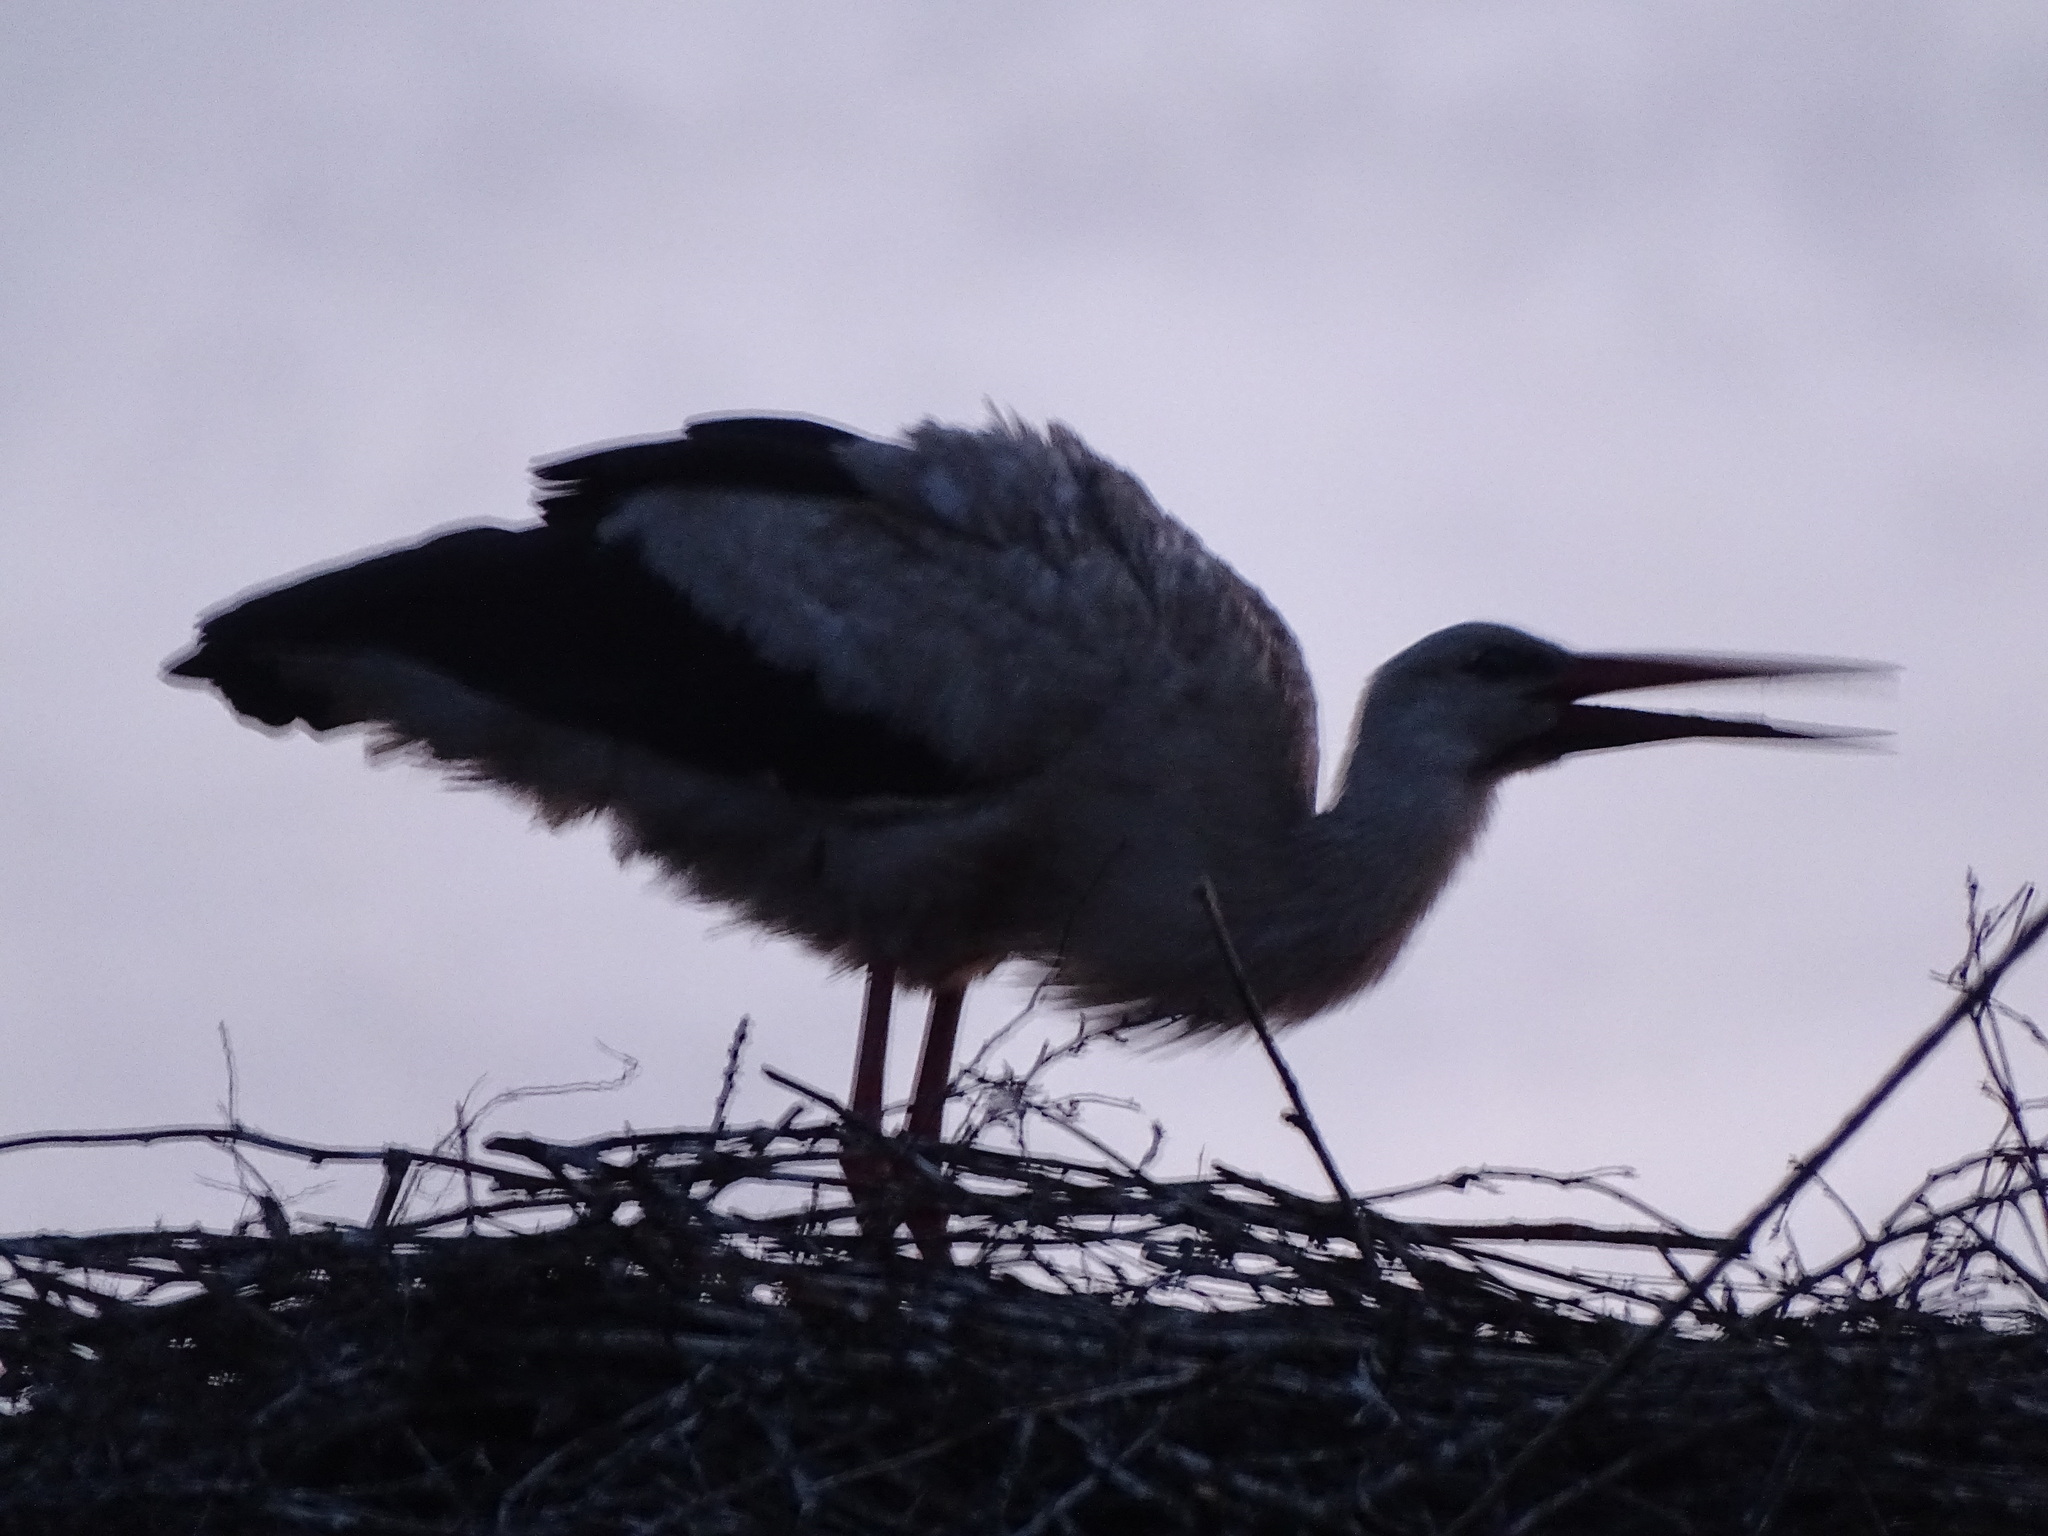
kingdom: Animalia
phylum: Chordata
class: Aves
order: Ciconiiformes
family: Ciconiidae
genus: Ciconia
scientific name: Ciconia ciconia
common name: White stork
